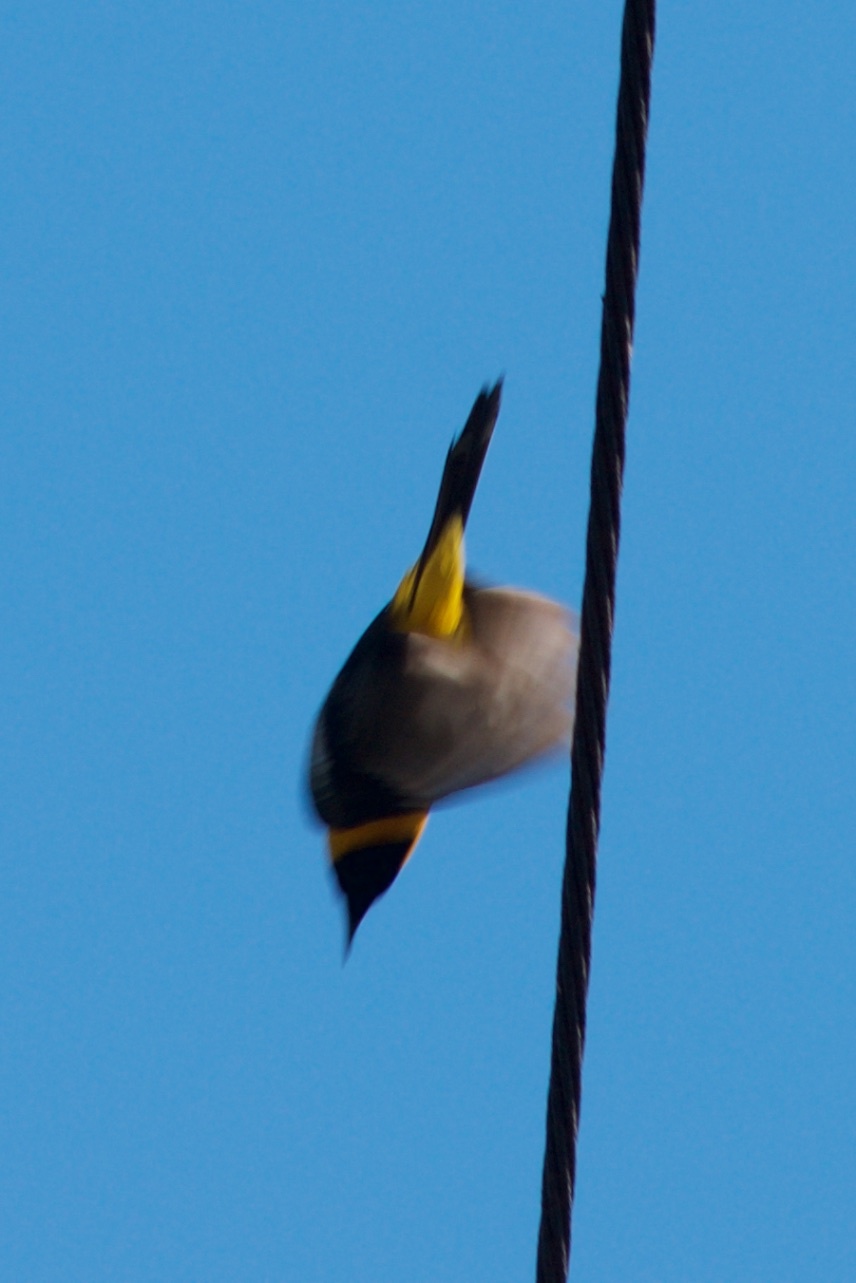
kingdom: Animalia
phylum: Chordata
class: Aves
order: Passeriformes
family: Icteridae
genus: Icterus
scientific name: Icterus cucullatus
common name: Hooded oriole
